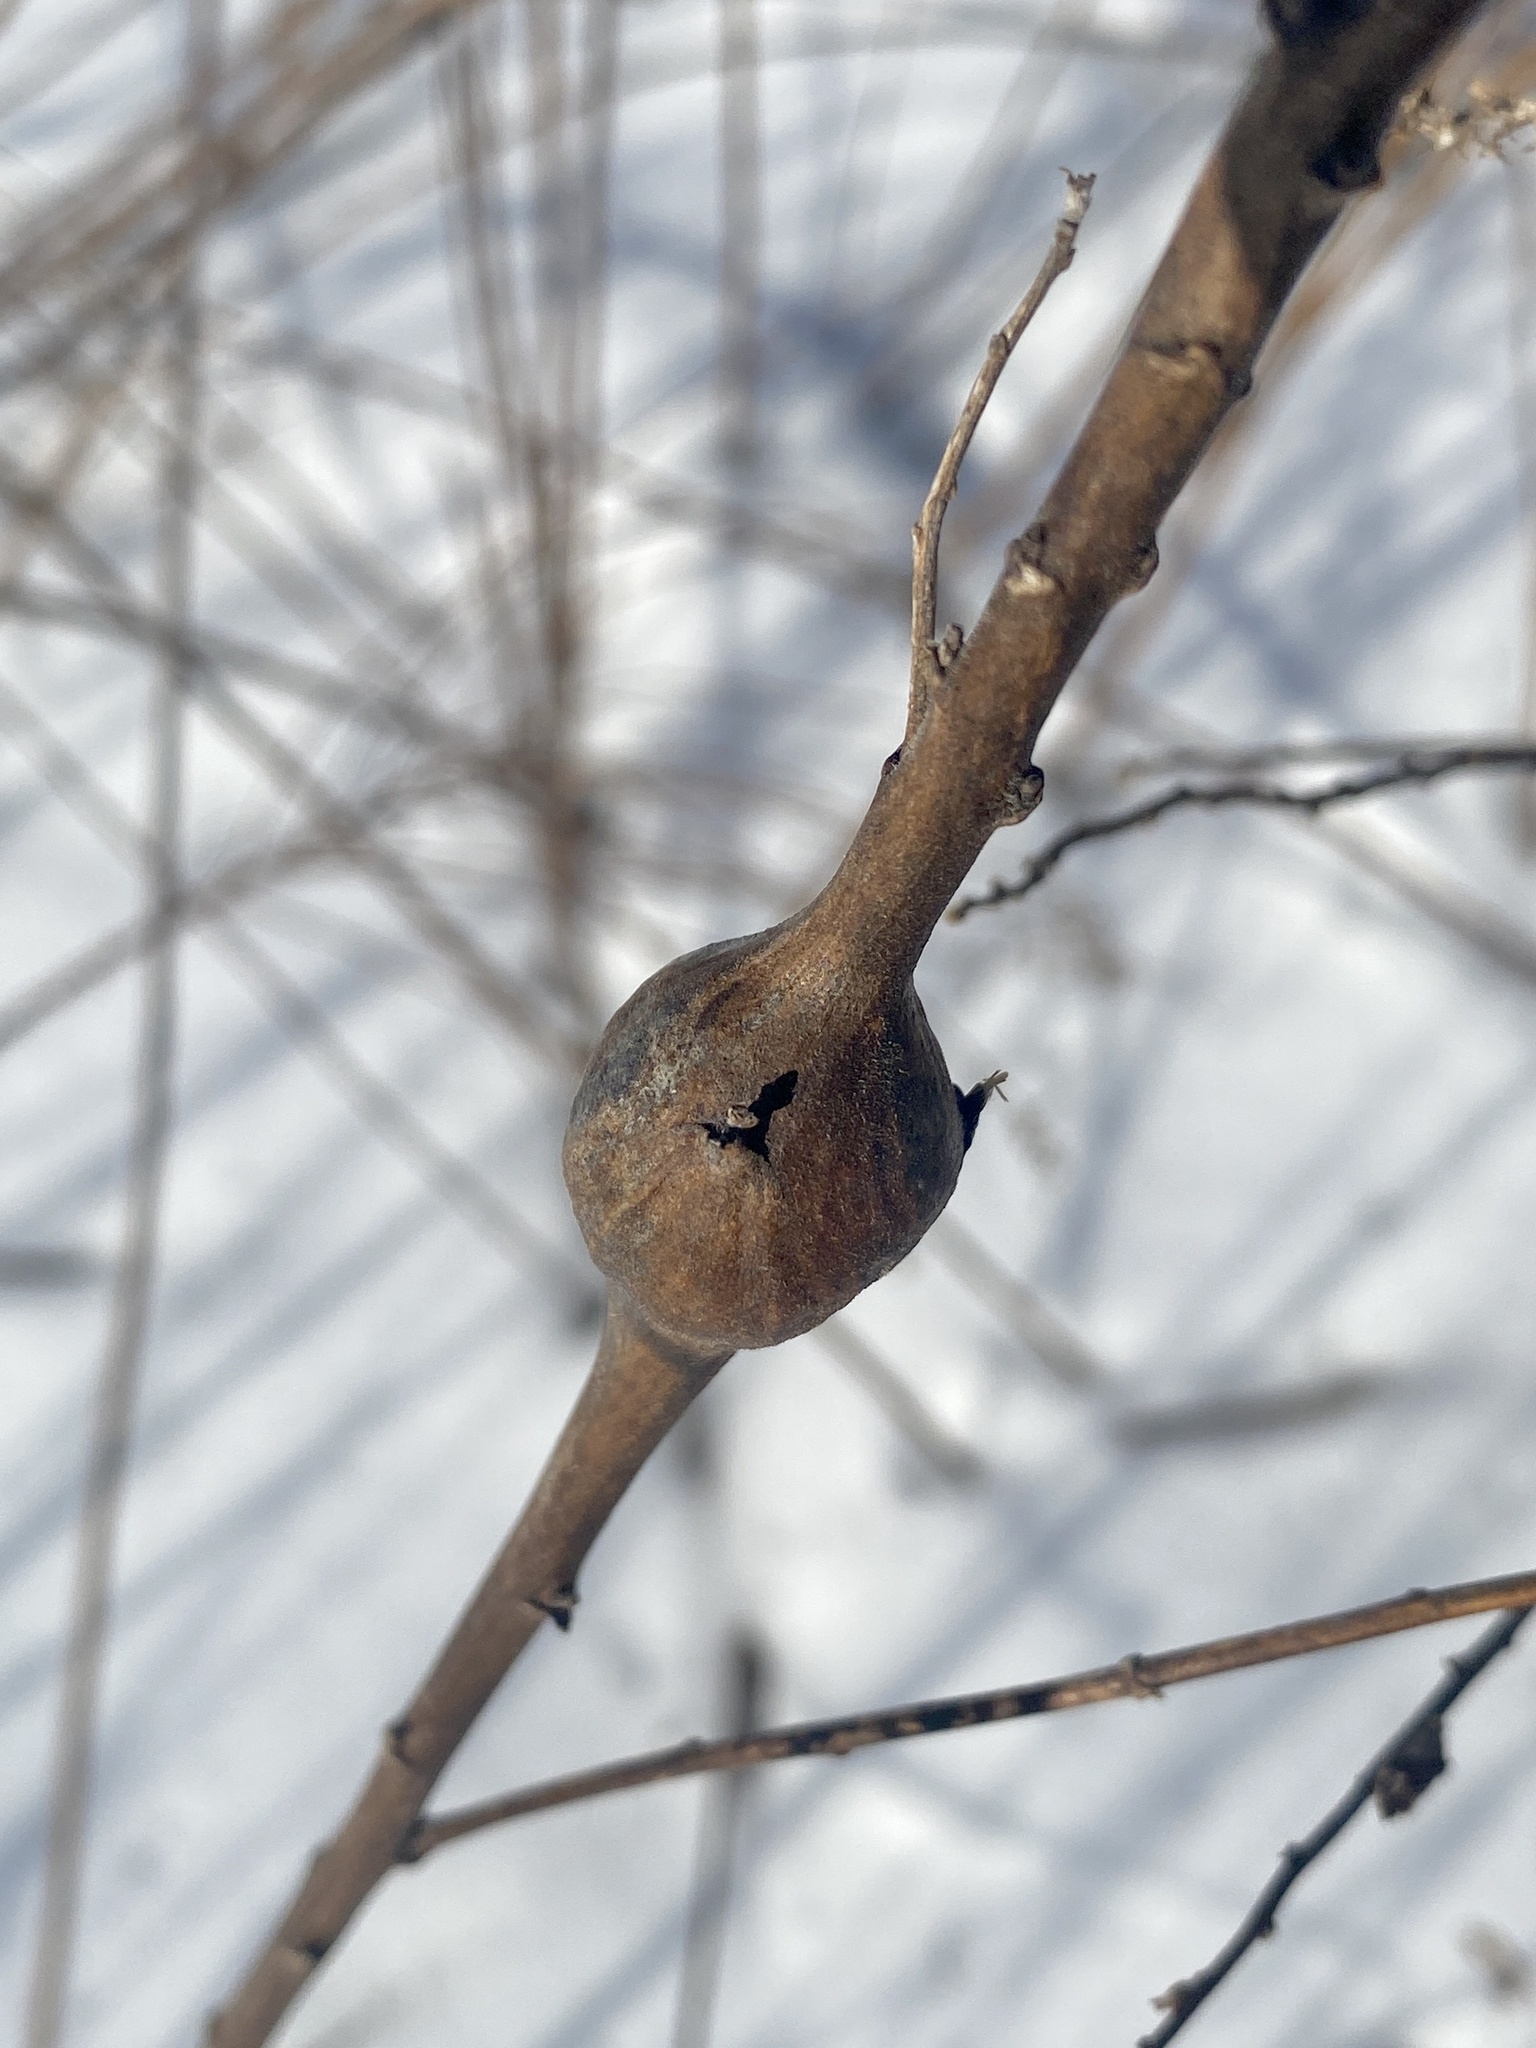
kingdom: Animalia
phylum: Arthropoda
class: Insecta
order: Diptera
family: Tephritidae
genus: Eurosta
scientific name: Eurosta solidaginis
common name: Goldenrod gall fly
